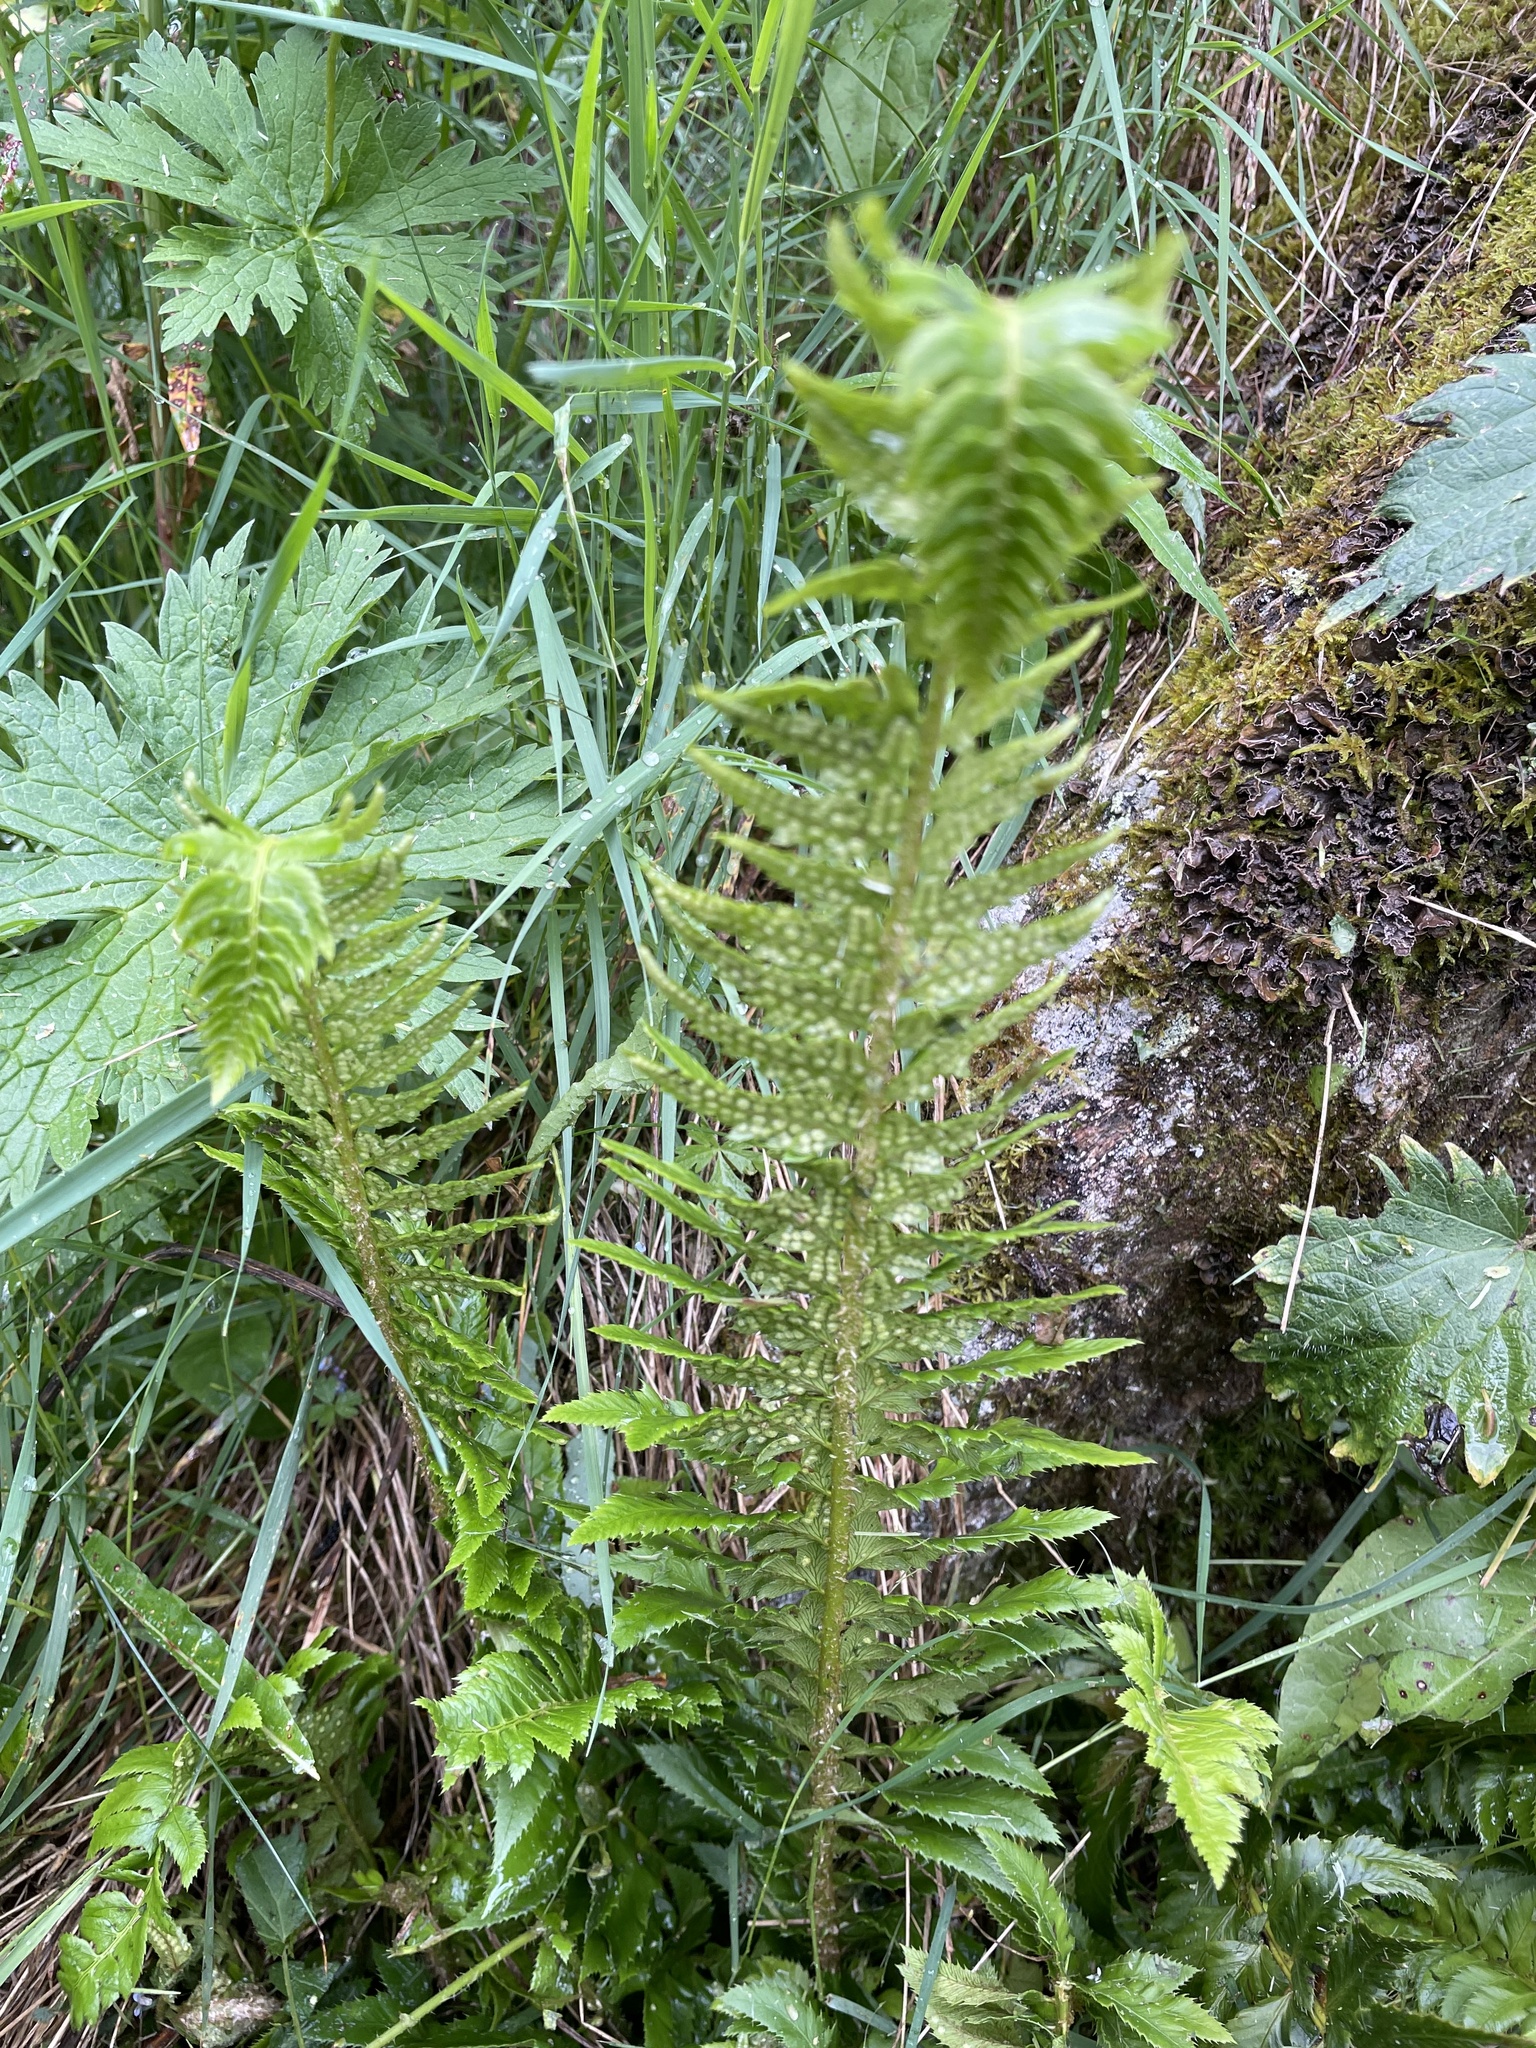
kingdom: Plantae
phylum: Tracheophyta
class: Polypodiopsida
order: Polypodiales
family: Dryopteridaceae
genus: Polystichum
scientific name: Polystichum lonchitis
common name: Holly fern
